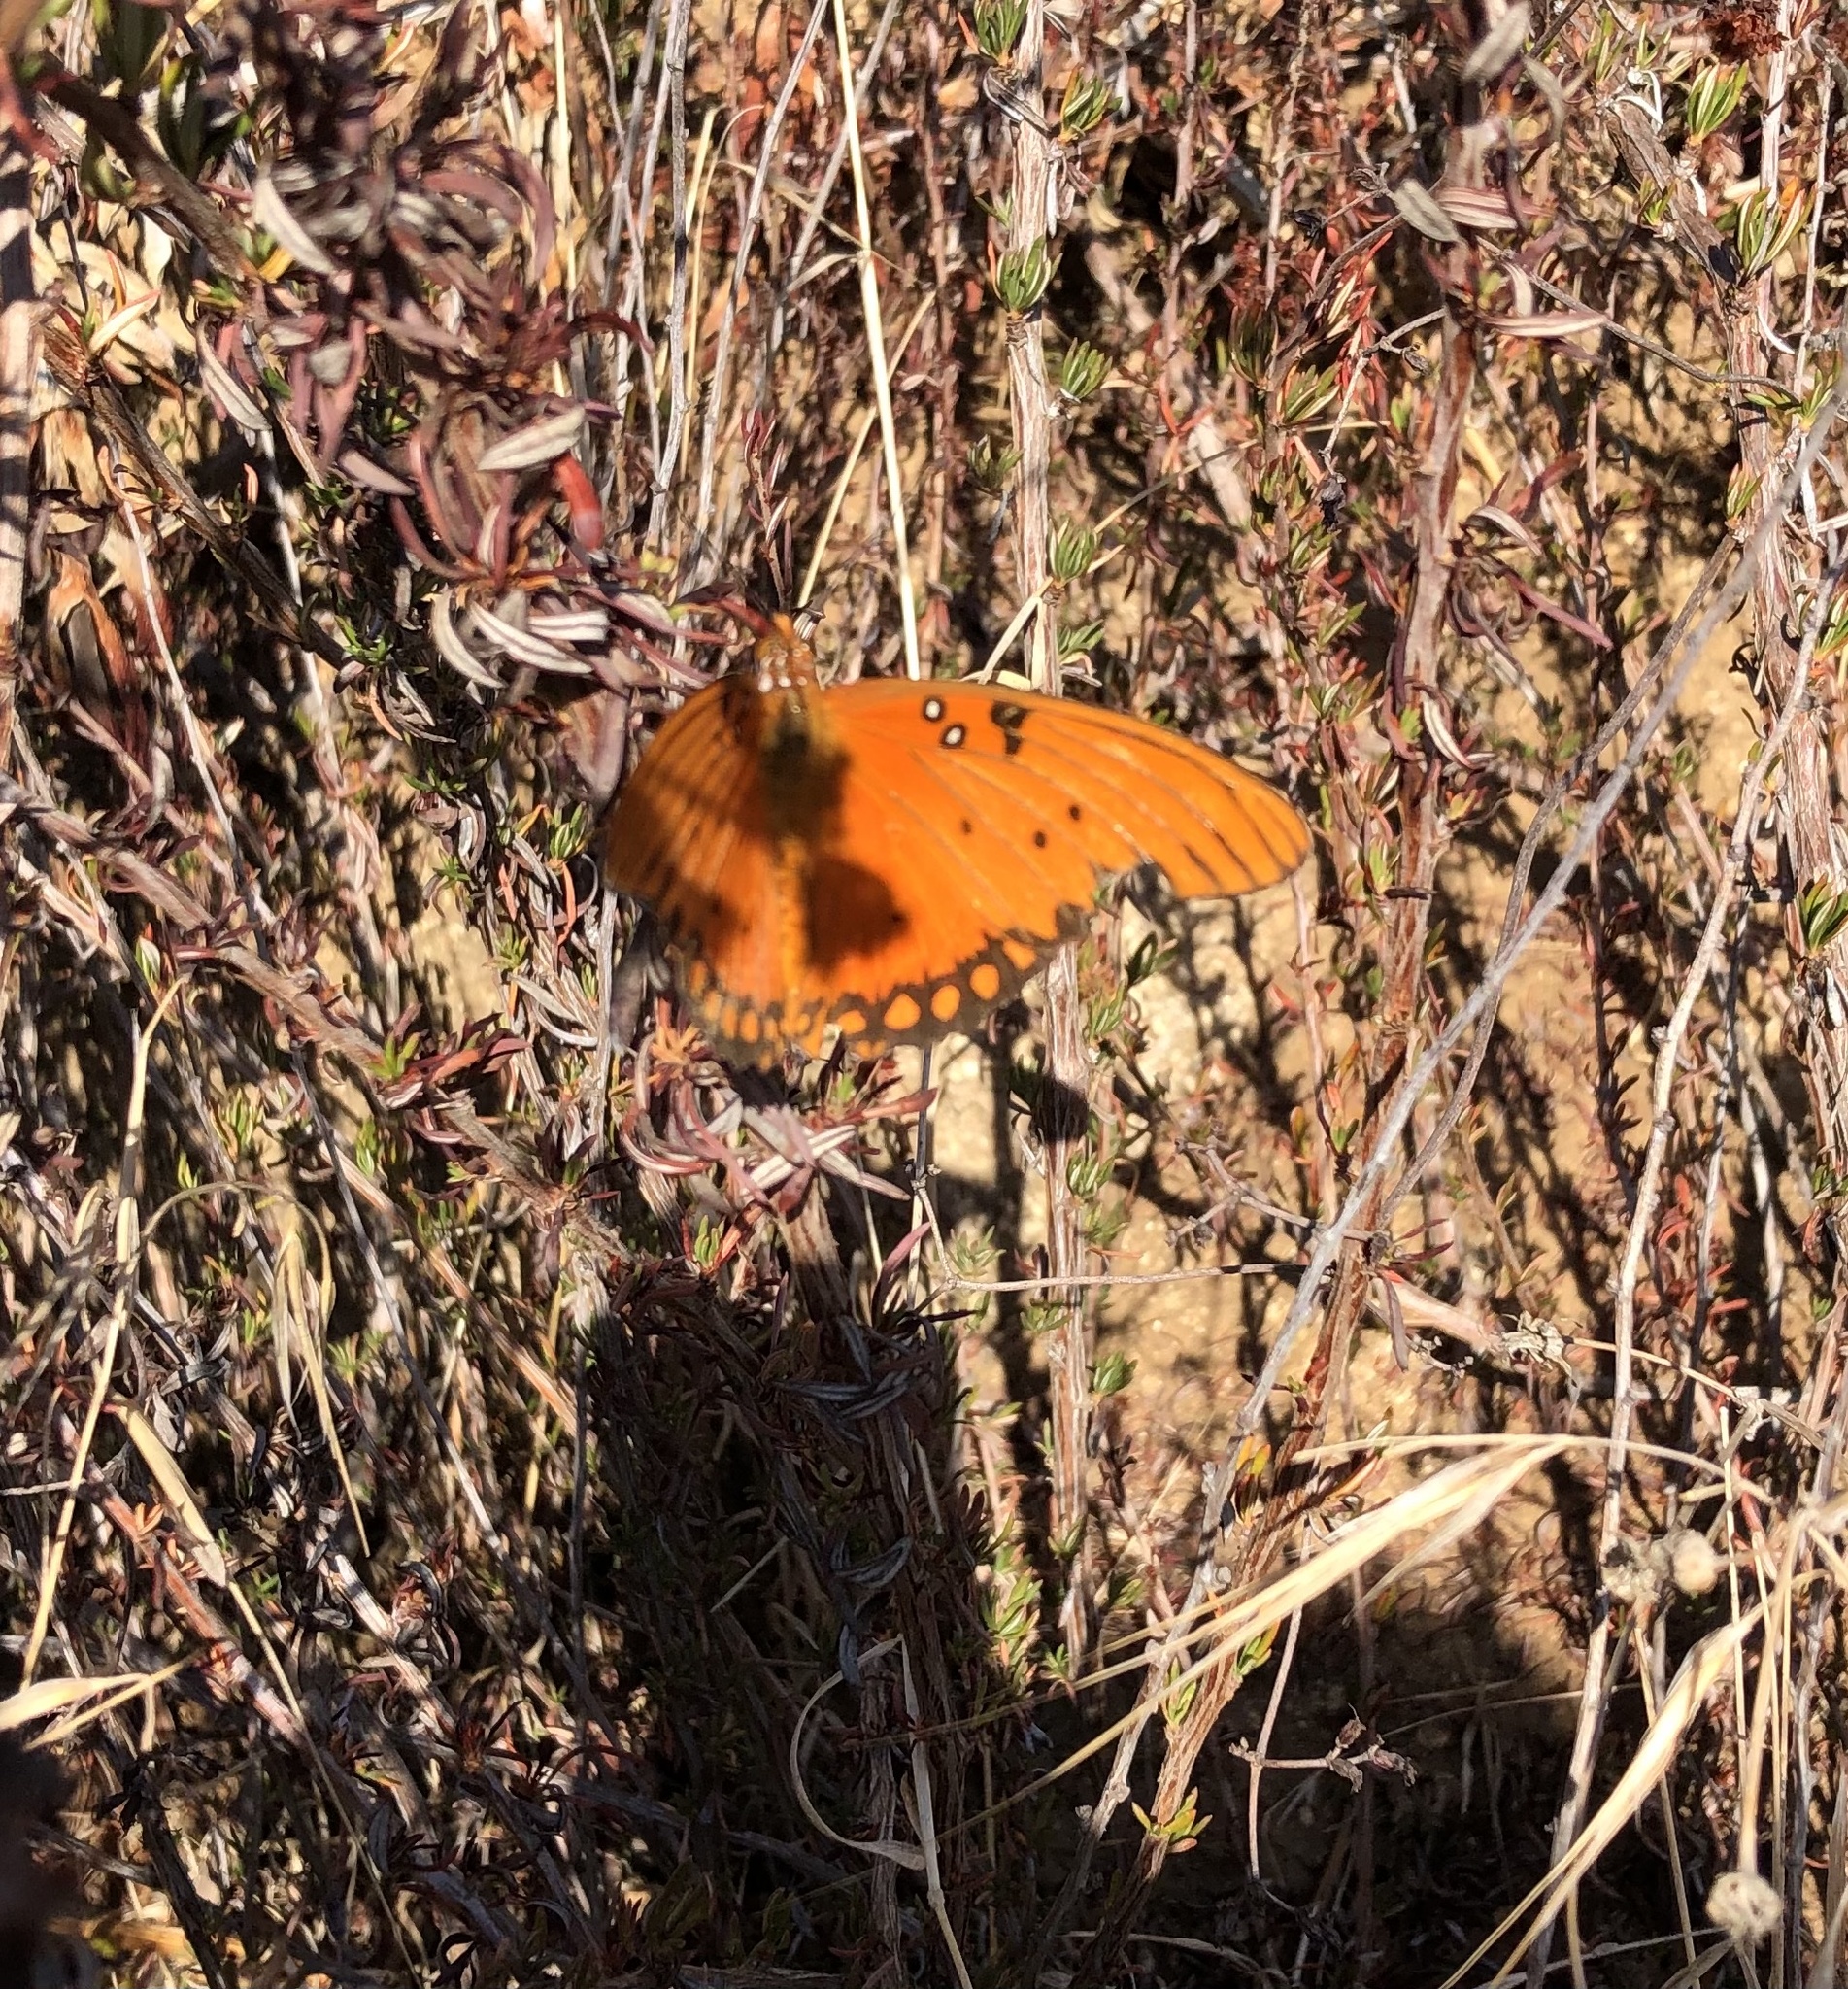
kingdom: Animalia
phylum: Arthropoda
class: Insecta
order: Lepidoptera
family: Nymphalidae
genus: Dione
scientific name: Dione vanillae
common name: Gulf fritillary
